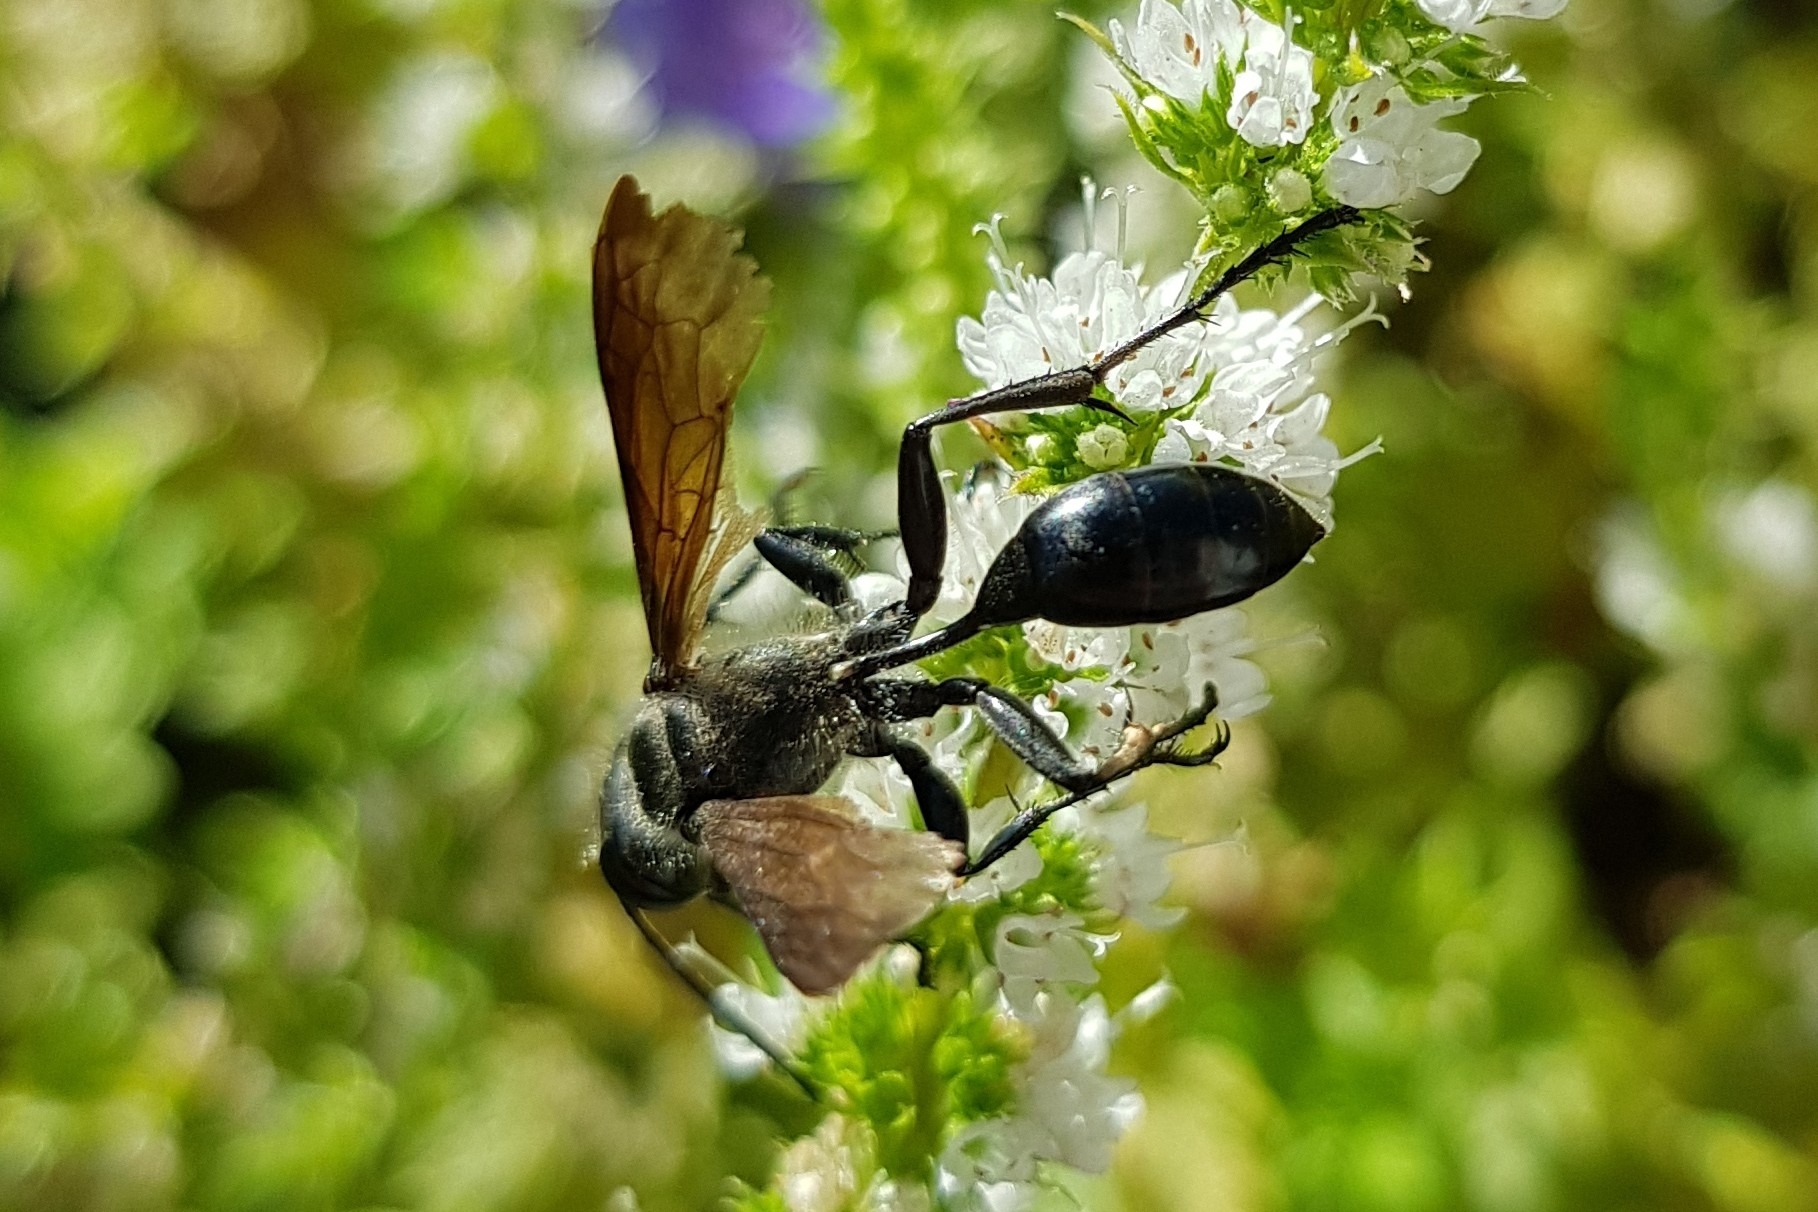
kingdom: Animalia
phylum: Arthropoda
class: Insecta
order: Hymenoptera
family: Sphecidae
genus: Isodontia
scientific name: Isodontia mexicana
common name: Mud dauber
